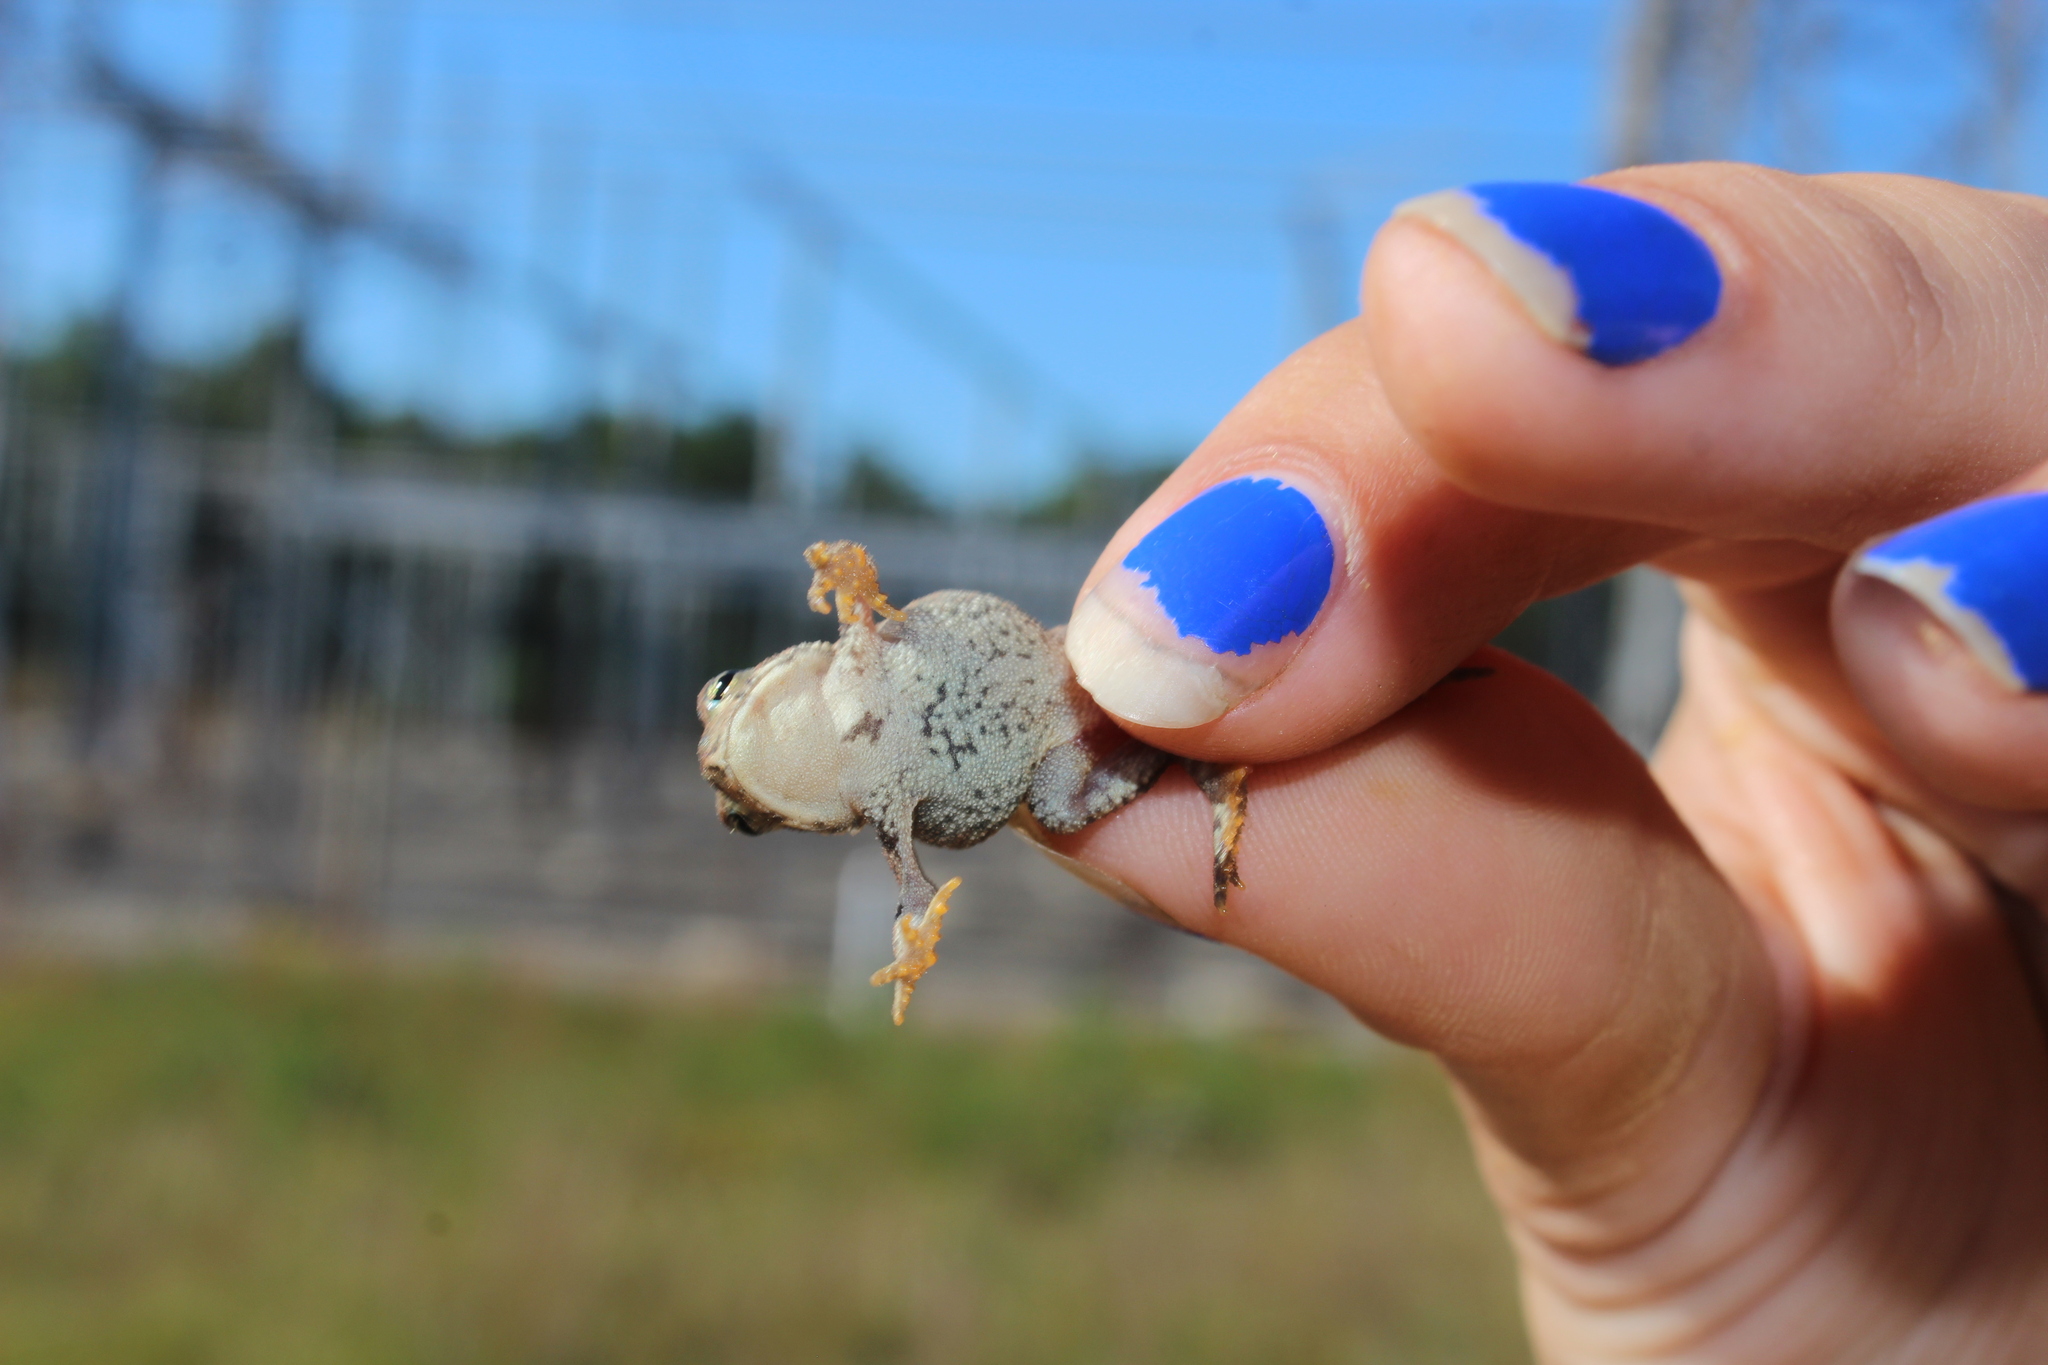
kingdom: Animalia
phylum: Chordata
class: Amphibia
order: Anura
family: Bufonidae
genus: Anaxyrus
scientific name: Anaxyrus americanus
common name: American toad
